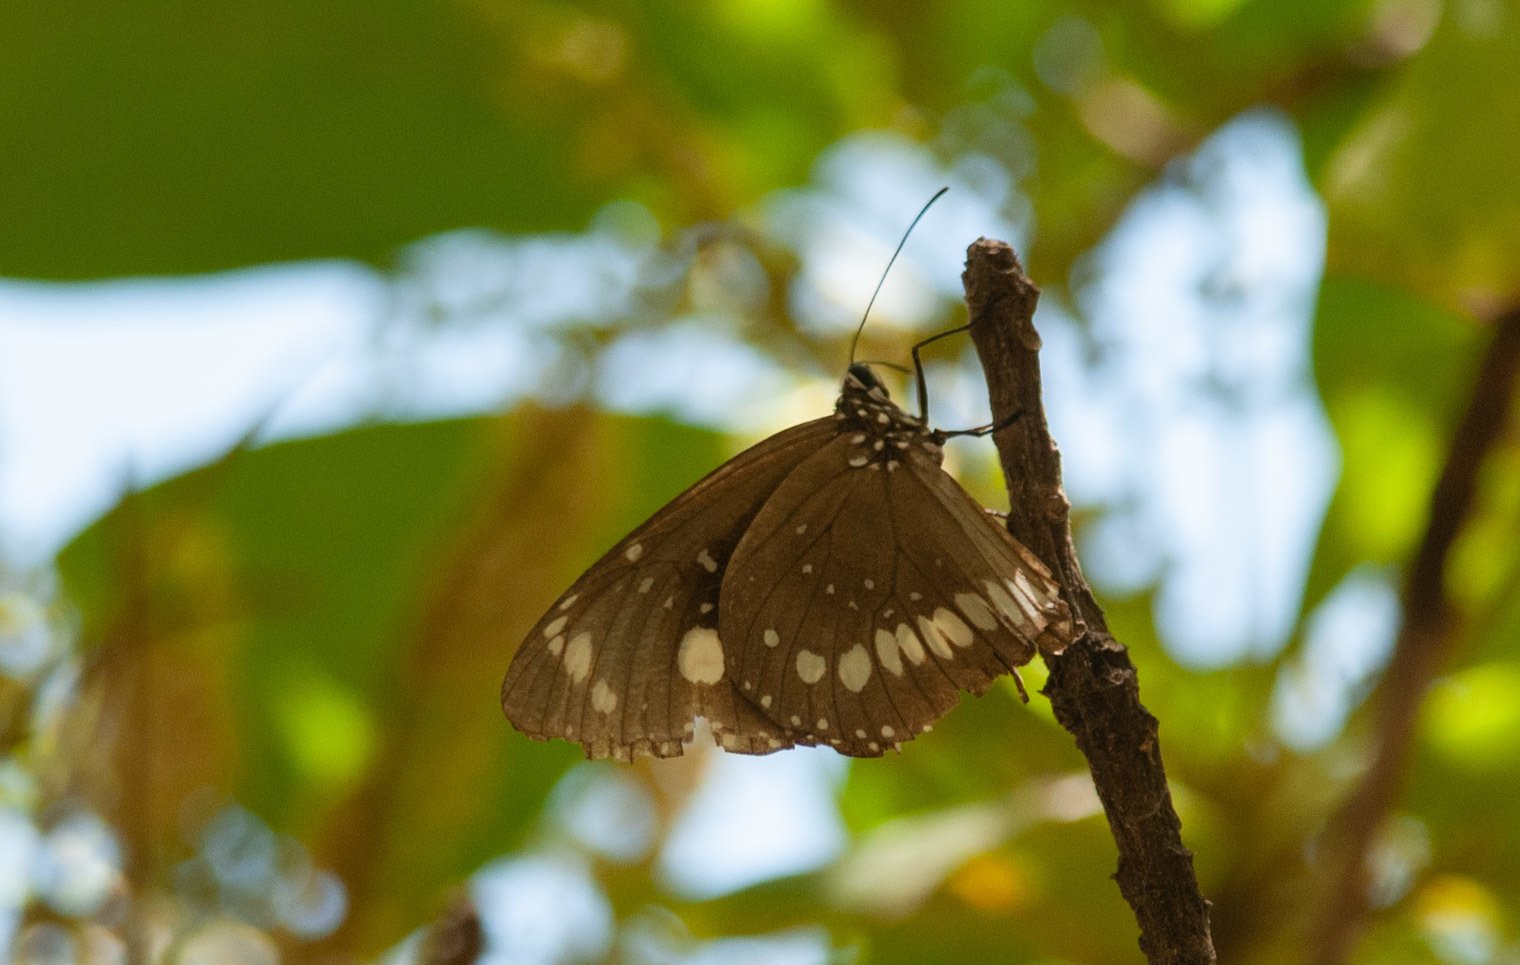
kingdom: Animalia
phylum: Arthropoda
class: Insecta
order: Lepidoptera
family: Nymphalidae
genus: Euploea
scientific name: Euploea core
